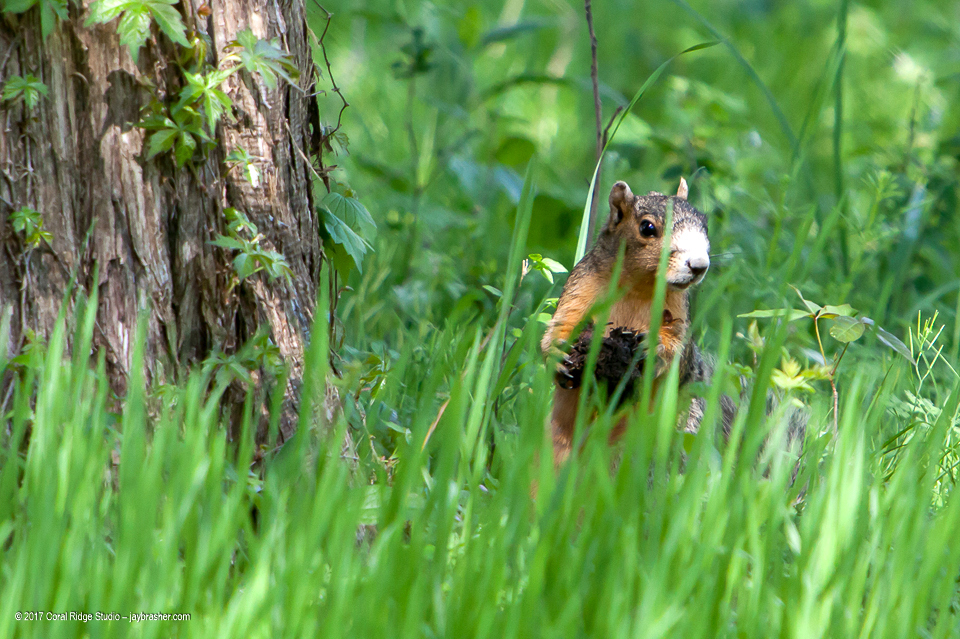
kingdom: Animalia
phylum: Chordata
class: Mammalia
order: Rodentia
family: Sciuridae
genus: Sciurus
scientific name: Sciurus niger
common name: Fox squirrel
